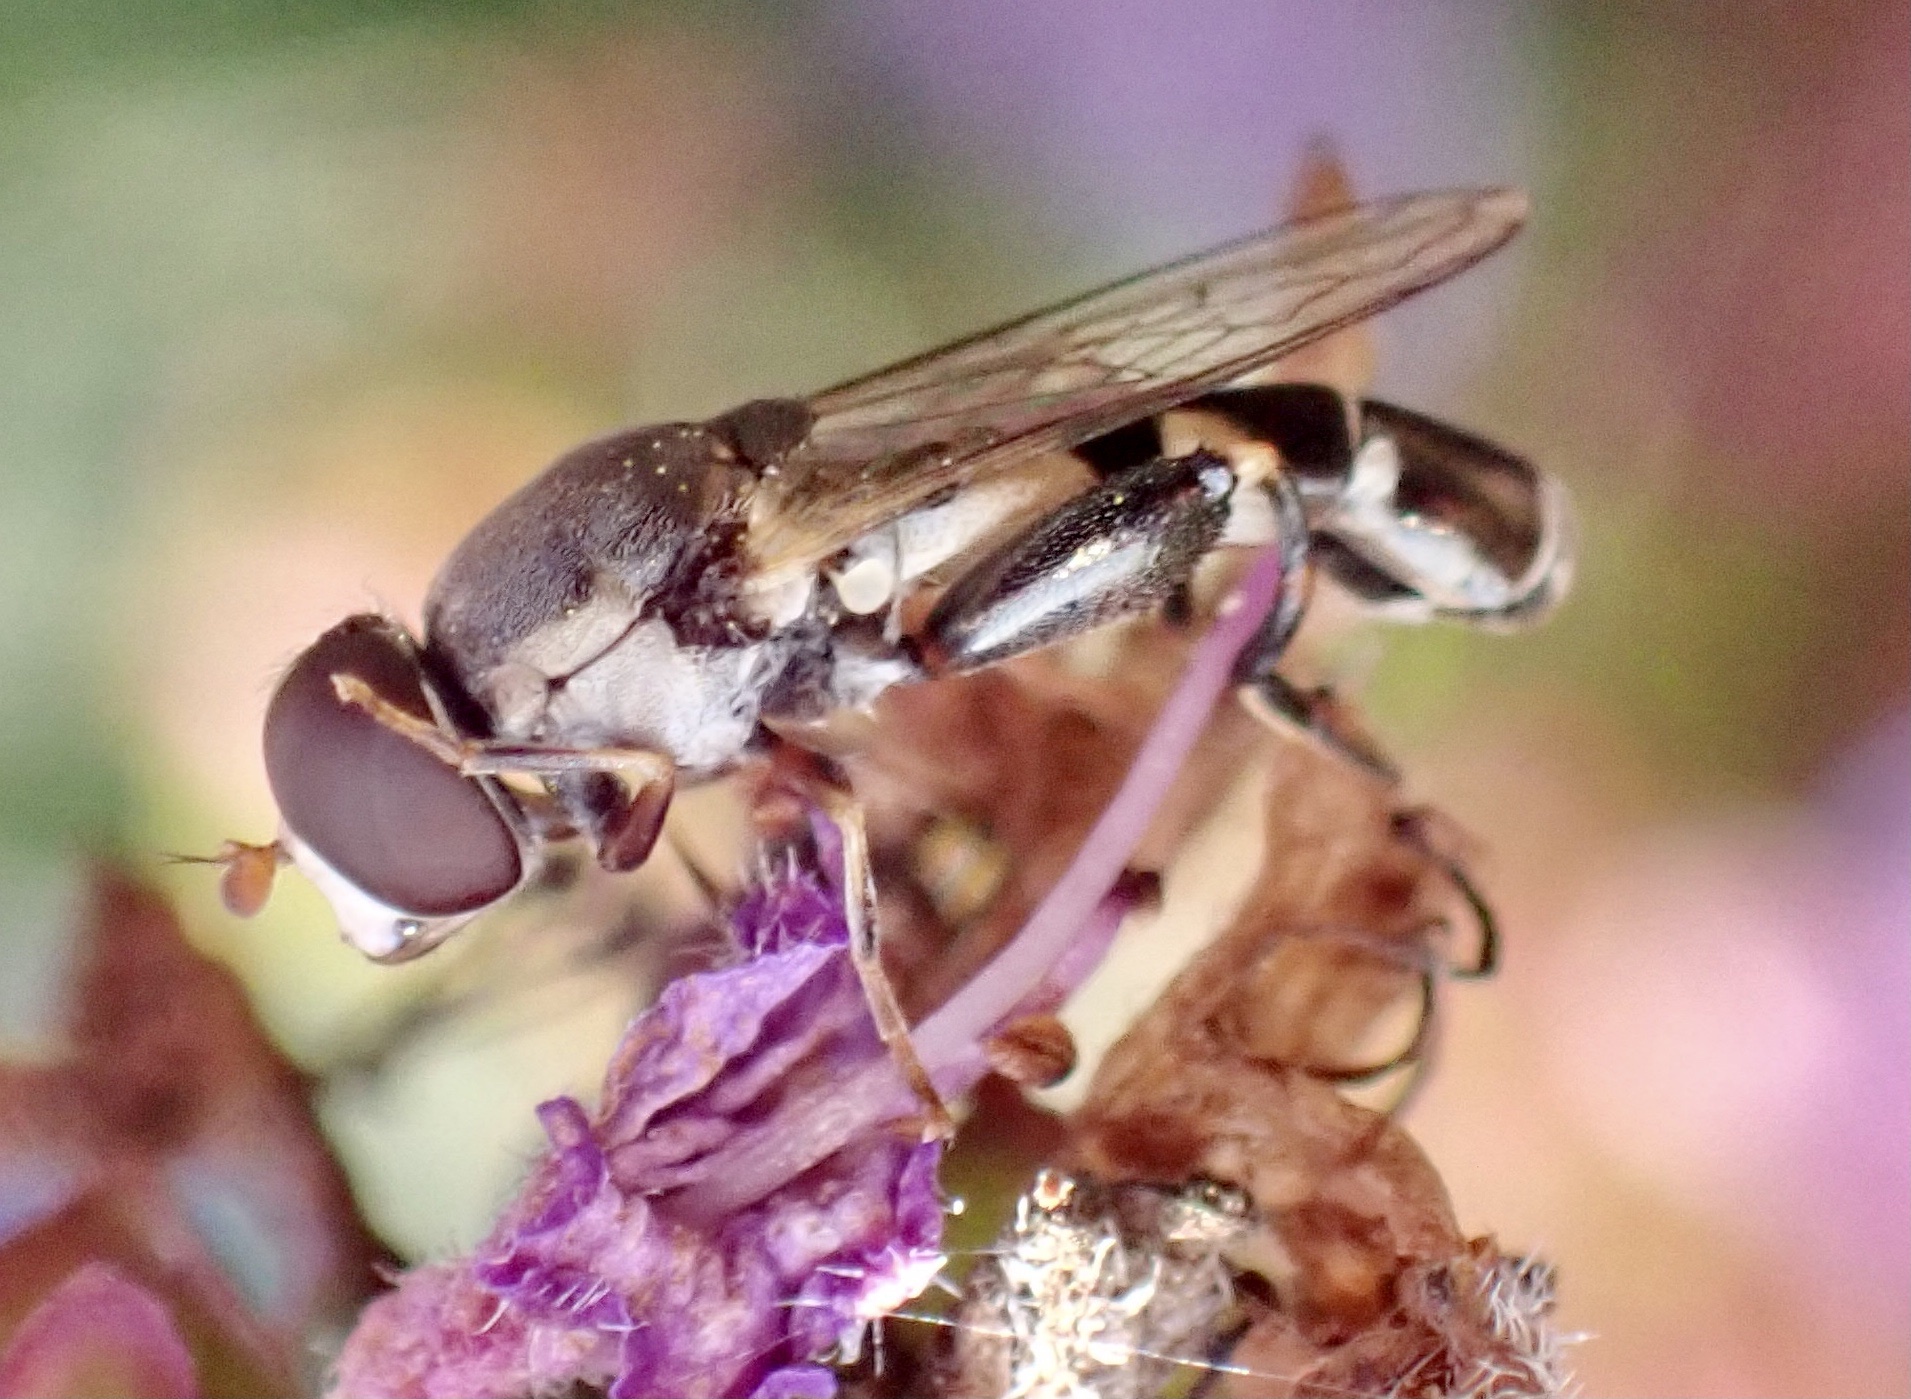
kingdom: Animalia
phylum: Arthropoda
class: Insecta
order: Diptera
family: Syrphidae
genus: Syritta
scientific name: Syritta pipiens
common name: Hover fly
